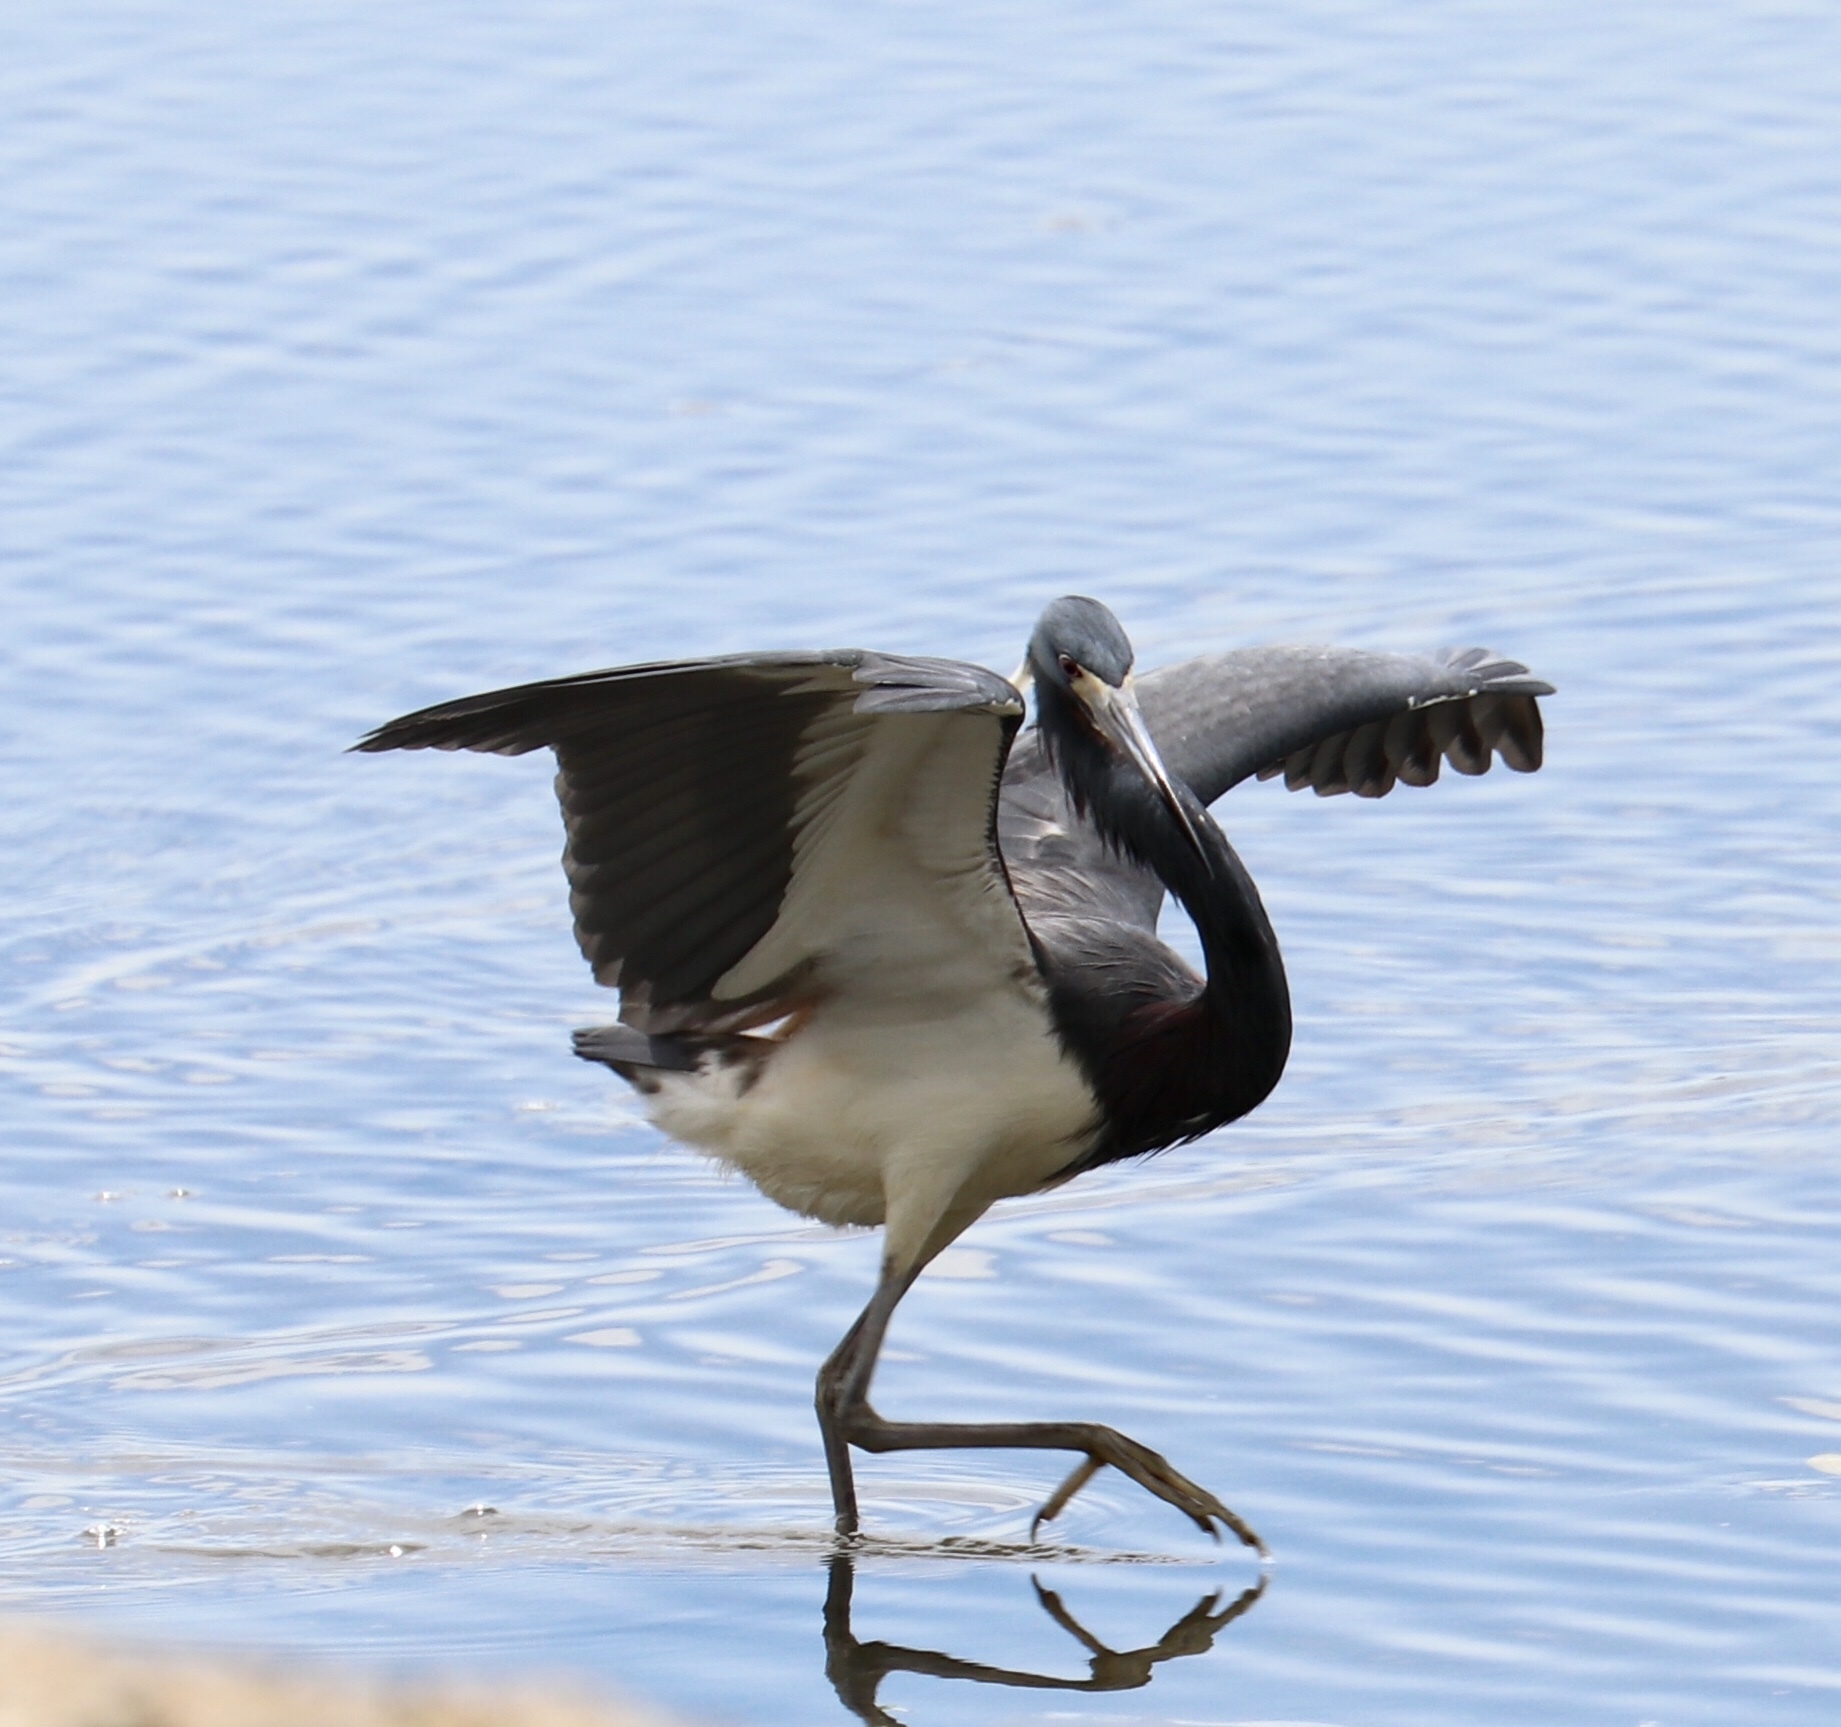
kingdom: Animalia
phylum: Chordata
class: Aves
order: Pelecaniformes
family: Ardeidae
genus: Egretta
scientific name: Egretta tricolor
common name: Tricolored heron
